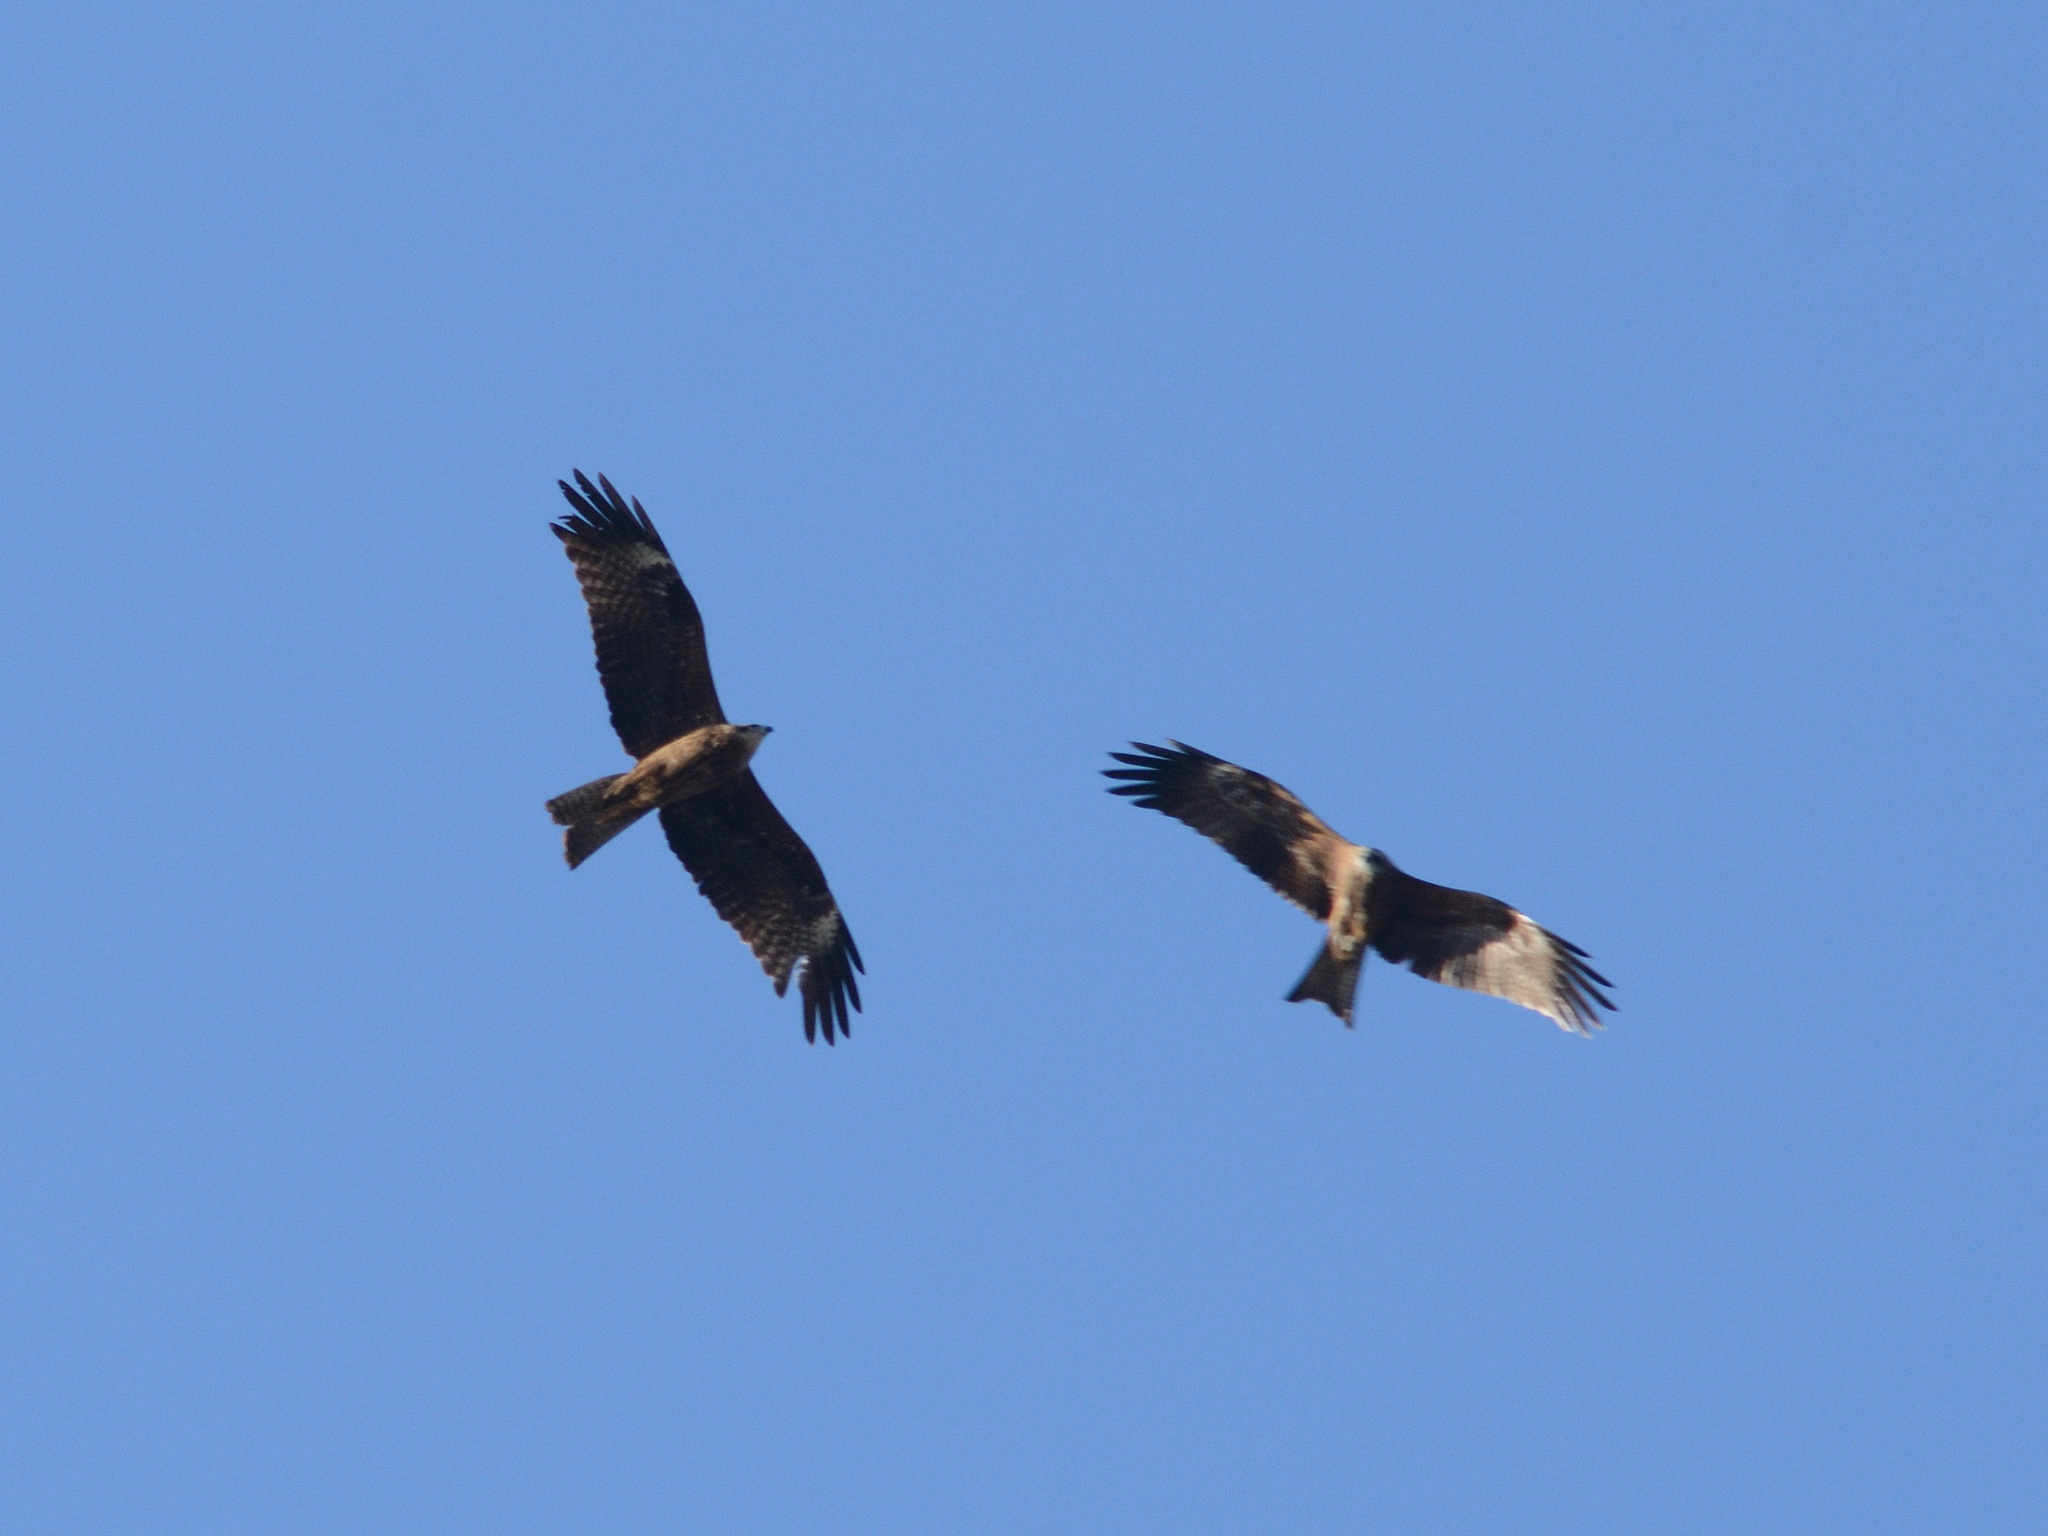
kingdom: Animalia
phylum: Chordata
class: Aves
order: Accipitriformes
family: Accipitridae
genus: Milvus
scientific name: Milvus migrans
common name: Black kite
